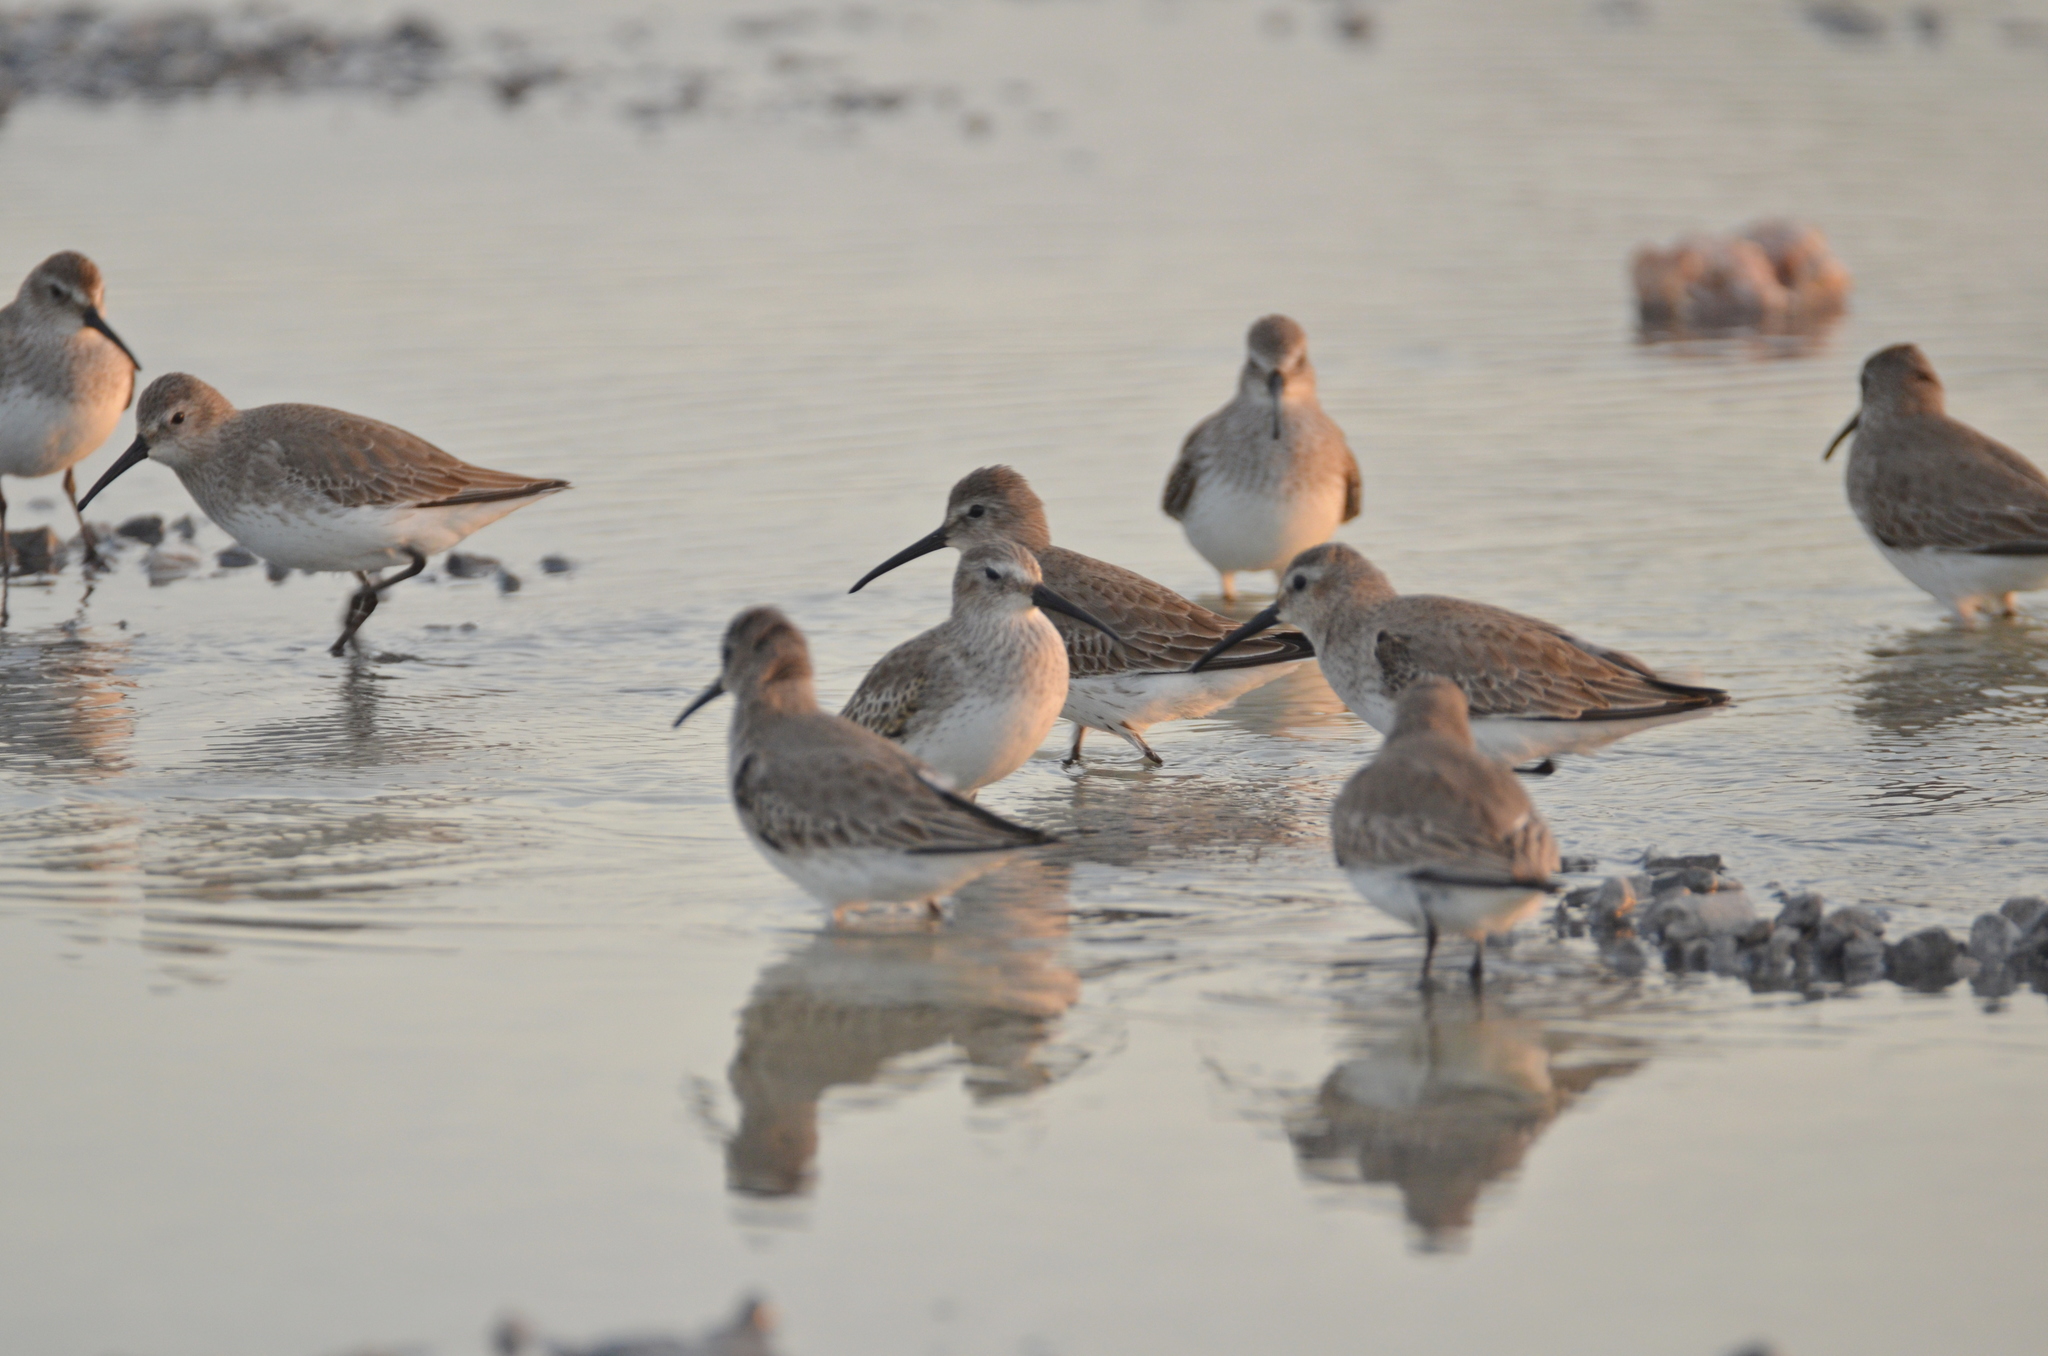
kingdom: Animalia
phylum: Chordata
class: Aves
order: Charadriiformes
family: Scolopacidae
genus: Calidris
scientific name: Calidris alpina
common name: Dunlin
